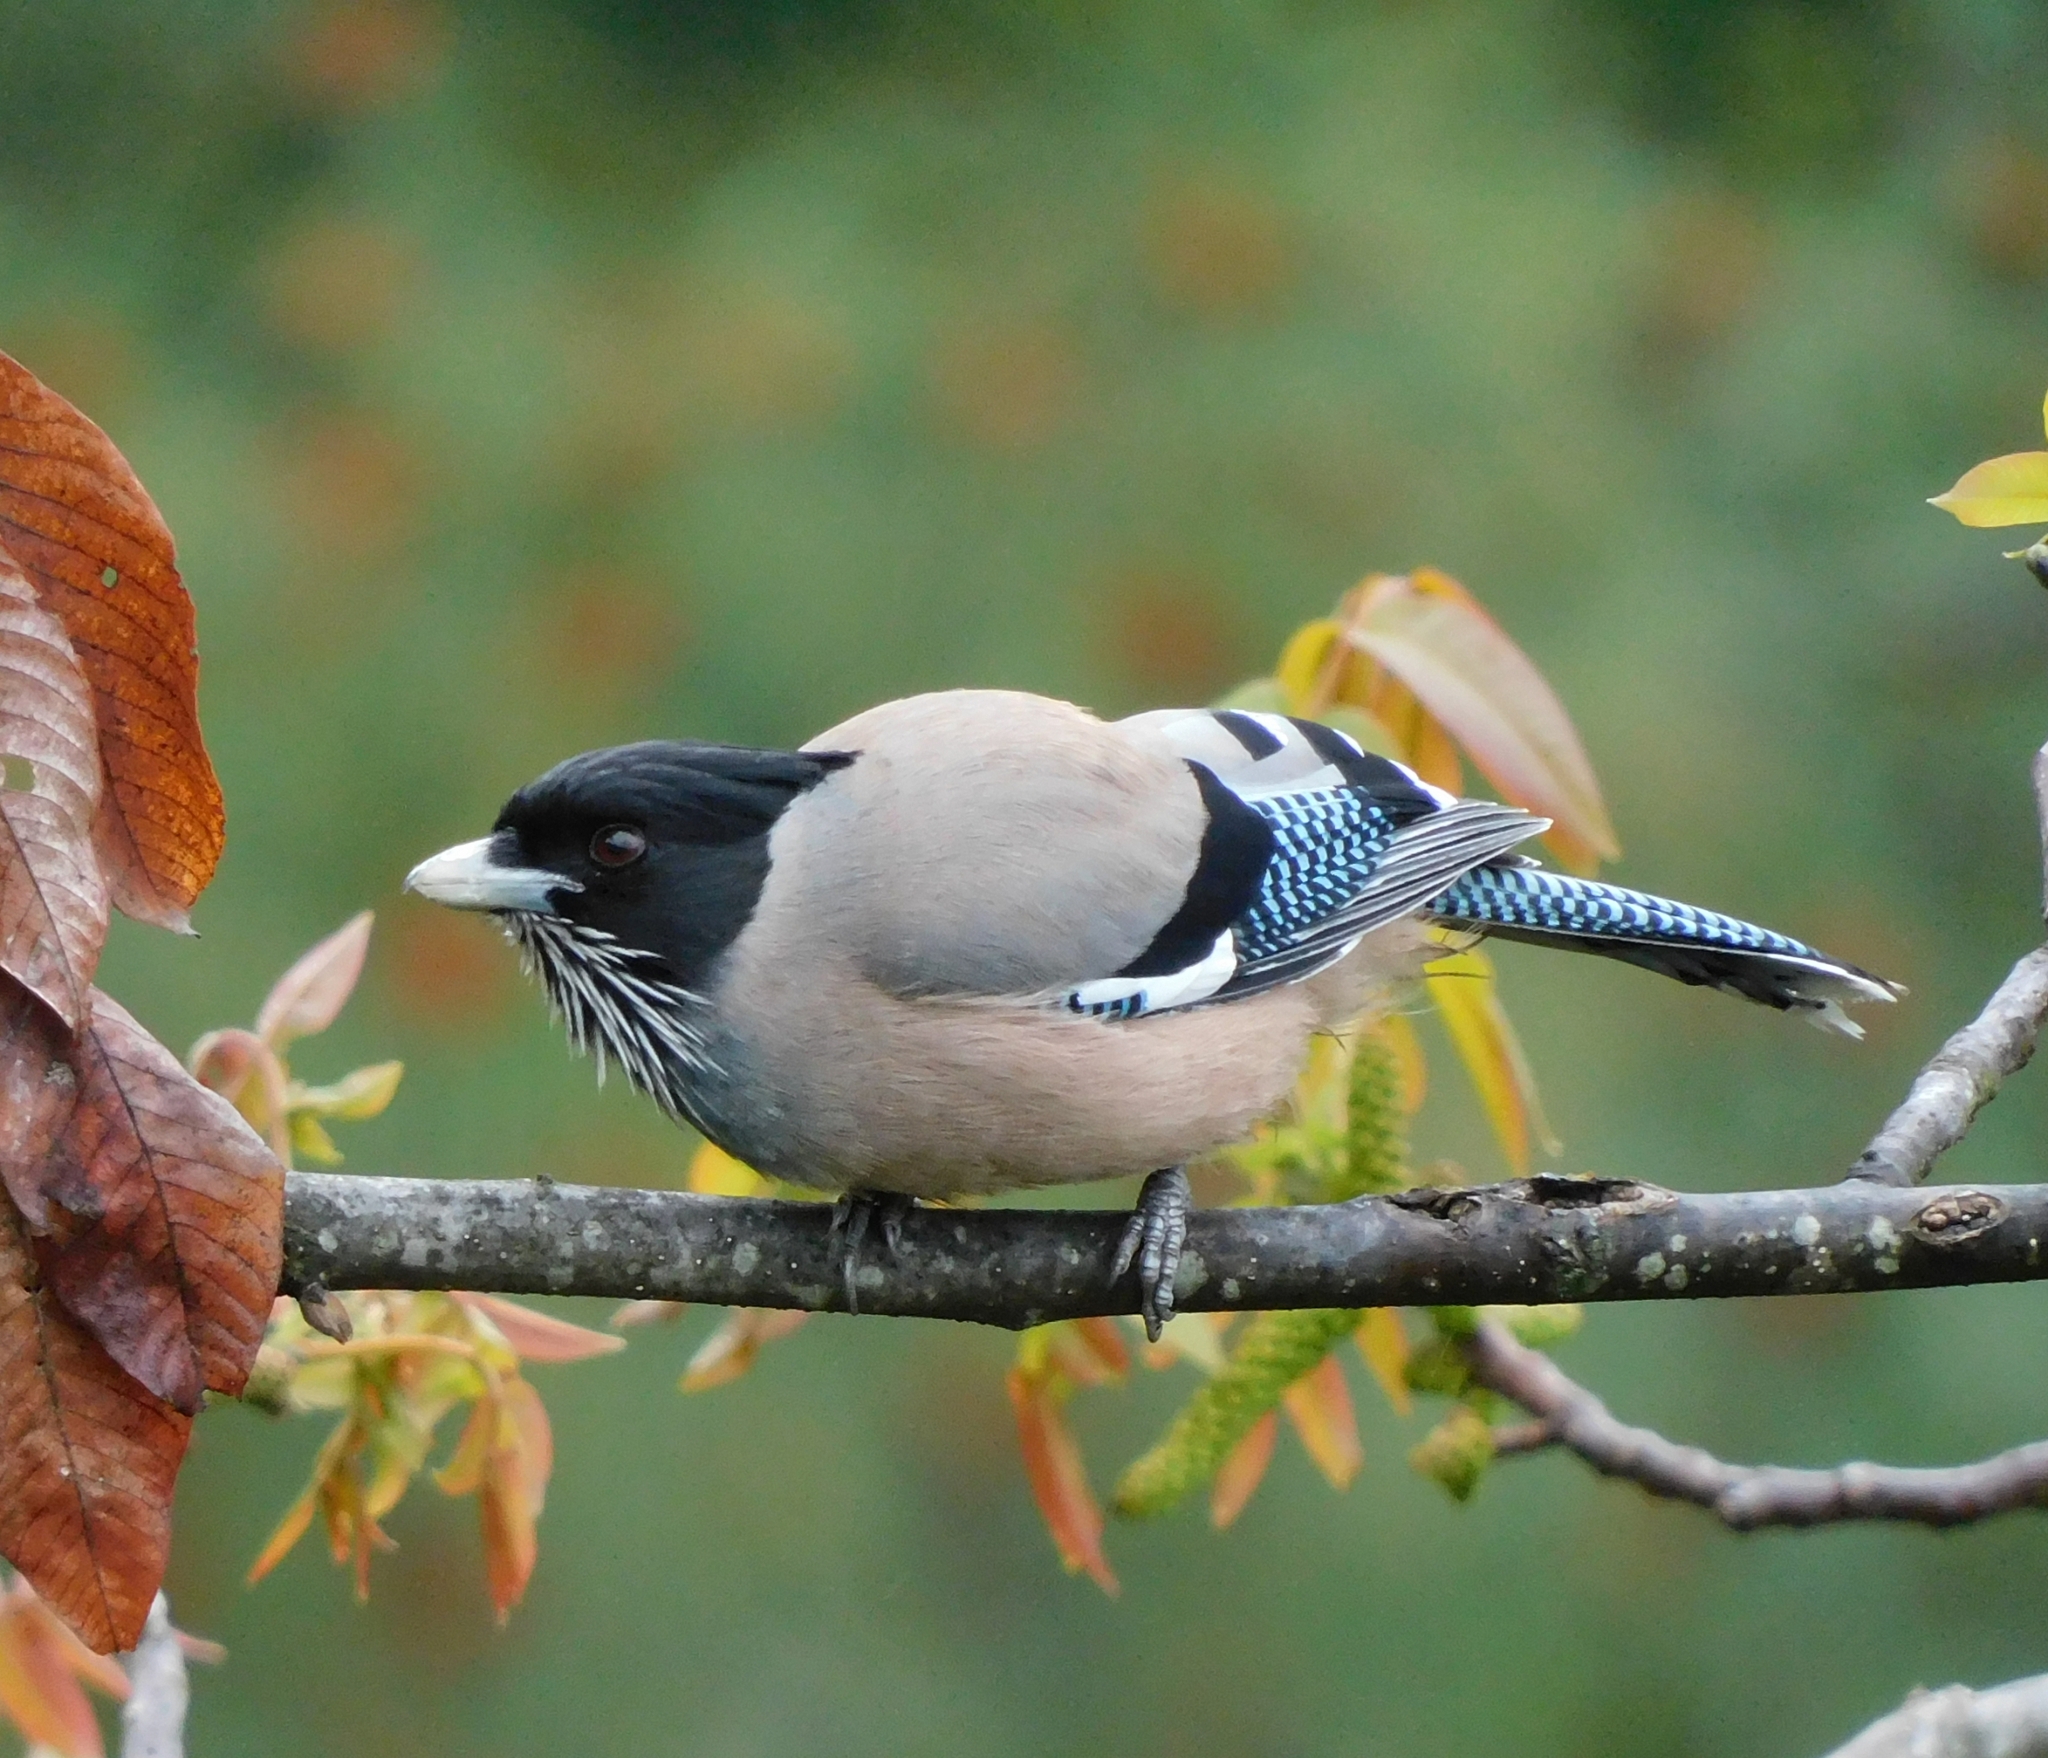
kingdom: Animalia
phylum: Chordata
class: Aves
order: Passeriformes
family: Corvidae
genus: Garrulus
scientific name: Garrulus lanceolatus
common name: Black-headed jay
